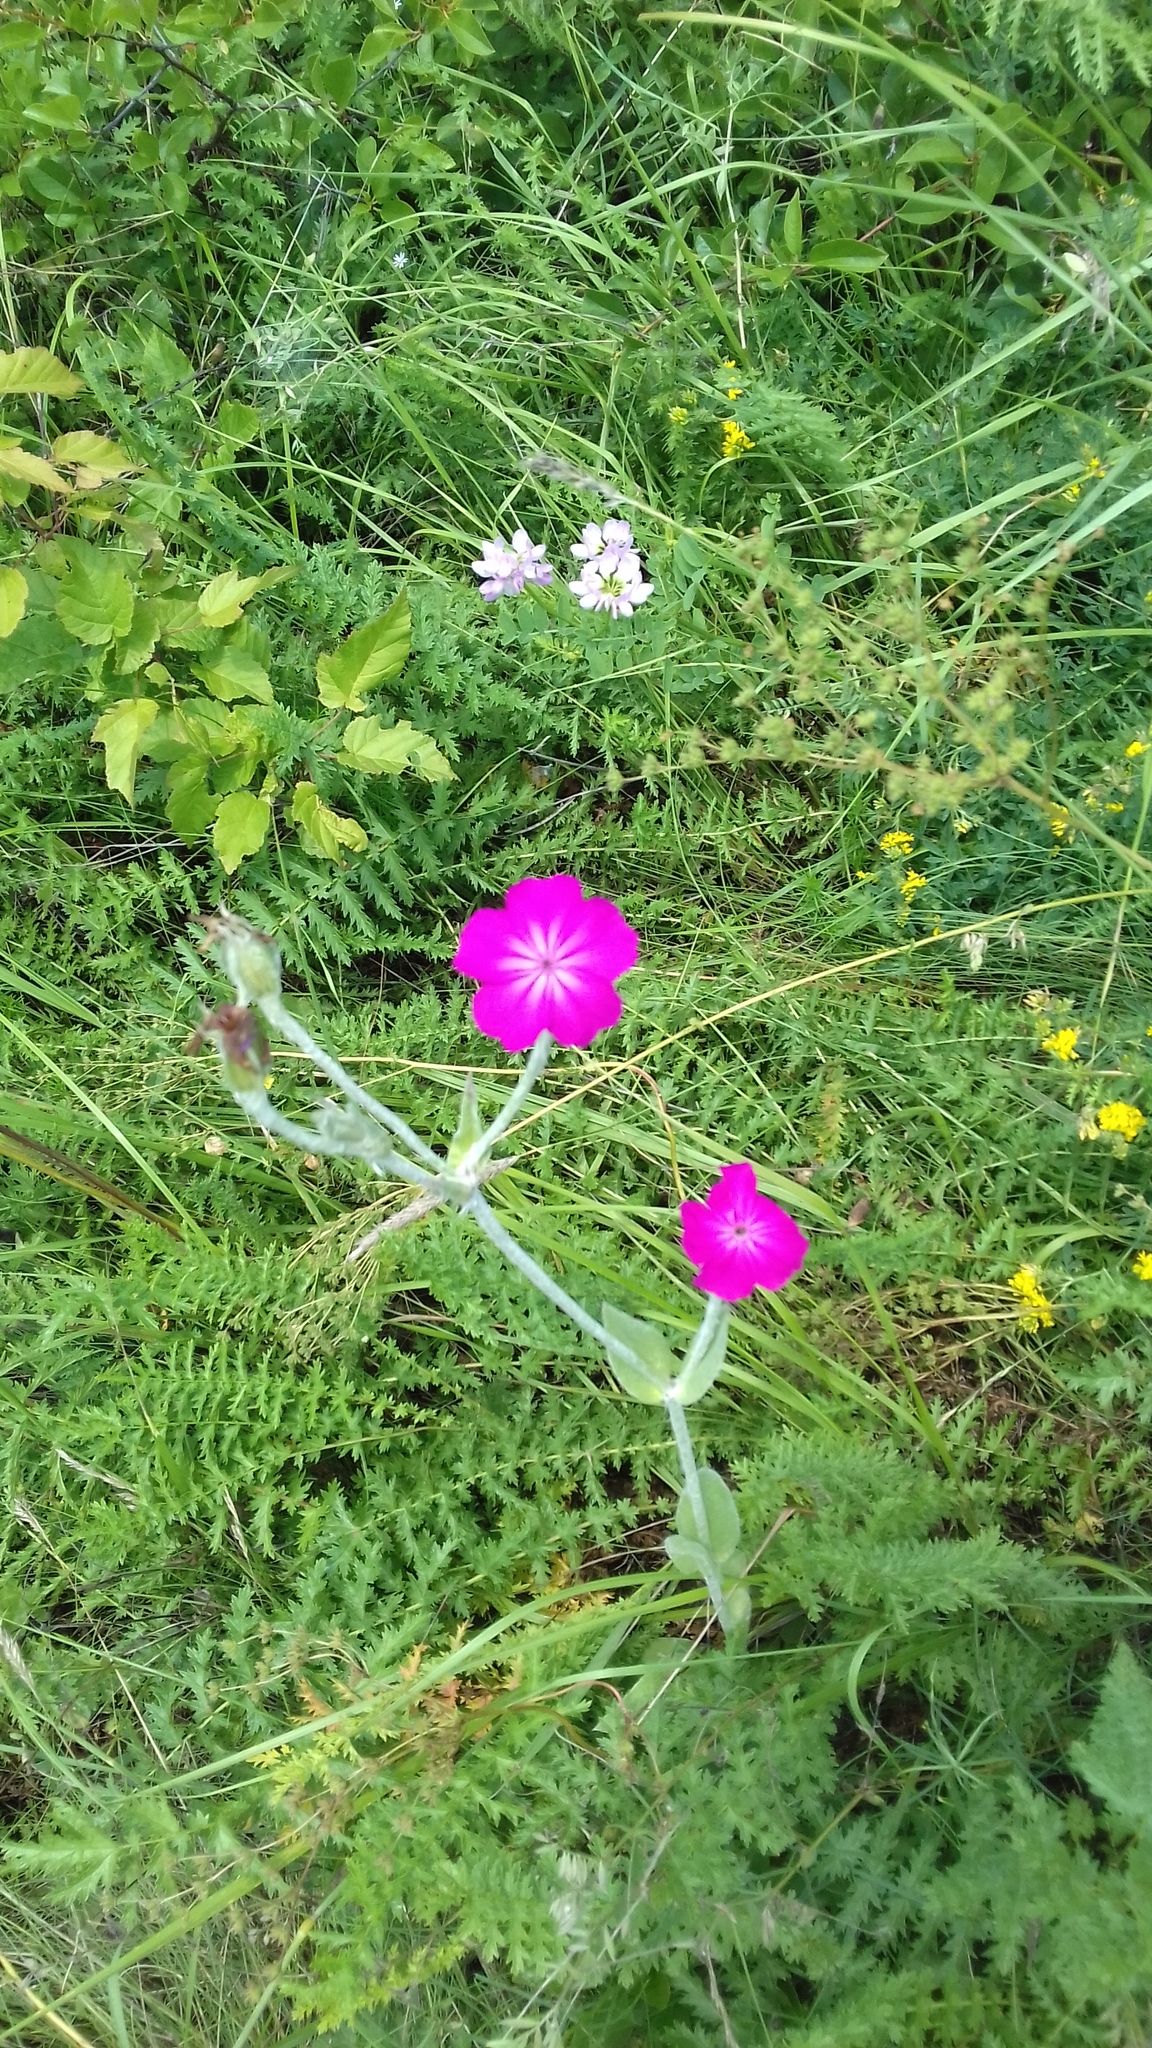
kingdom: Plantae
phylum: Tracheophyta
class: Magnoliopsida
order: Caryophyllales
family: Caryophyllaceae
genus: Silene
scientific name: Silene coronaria
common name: Rose campion
